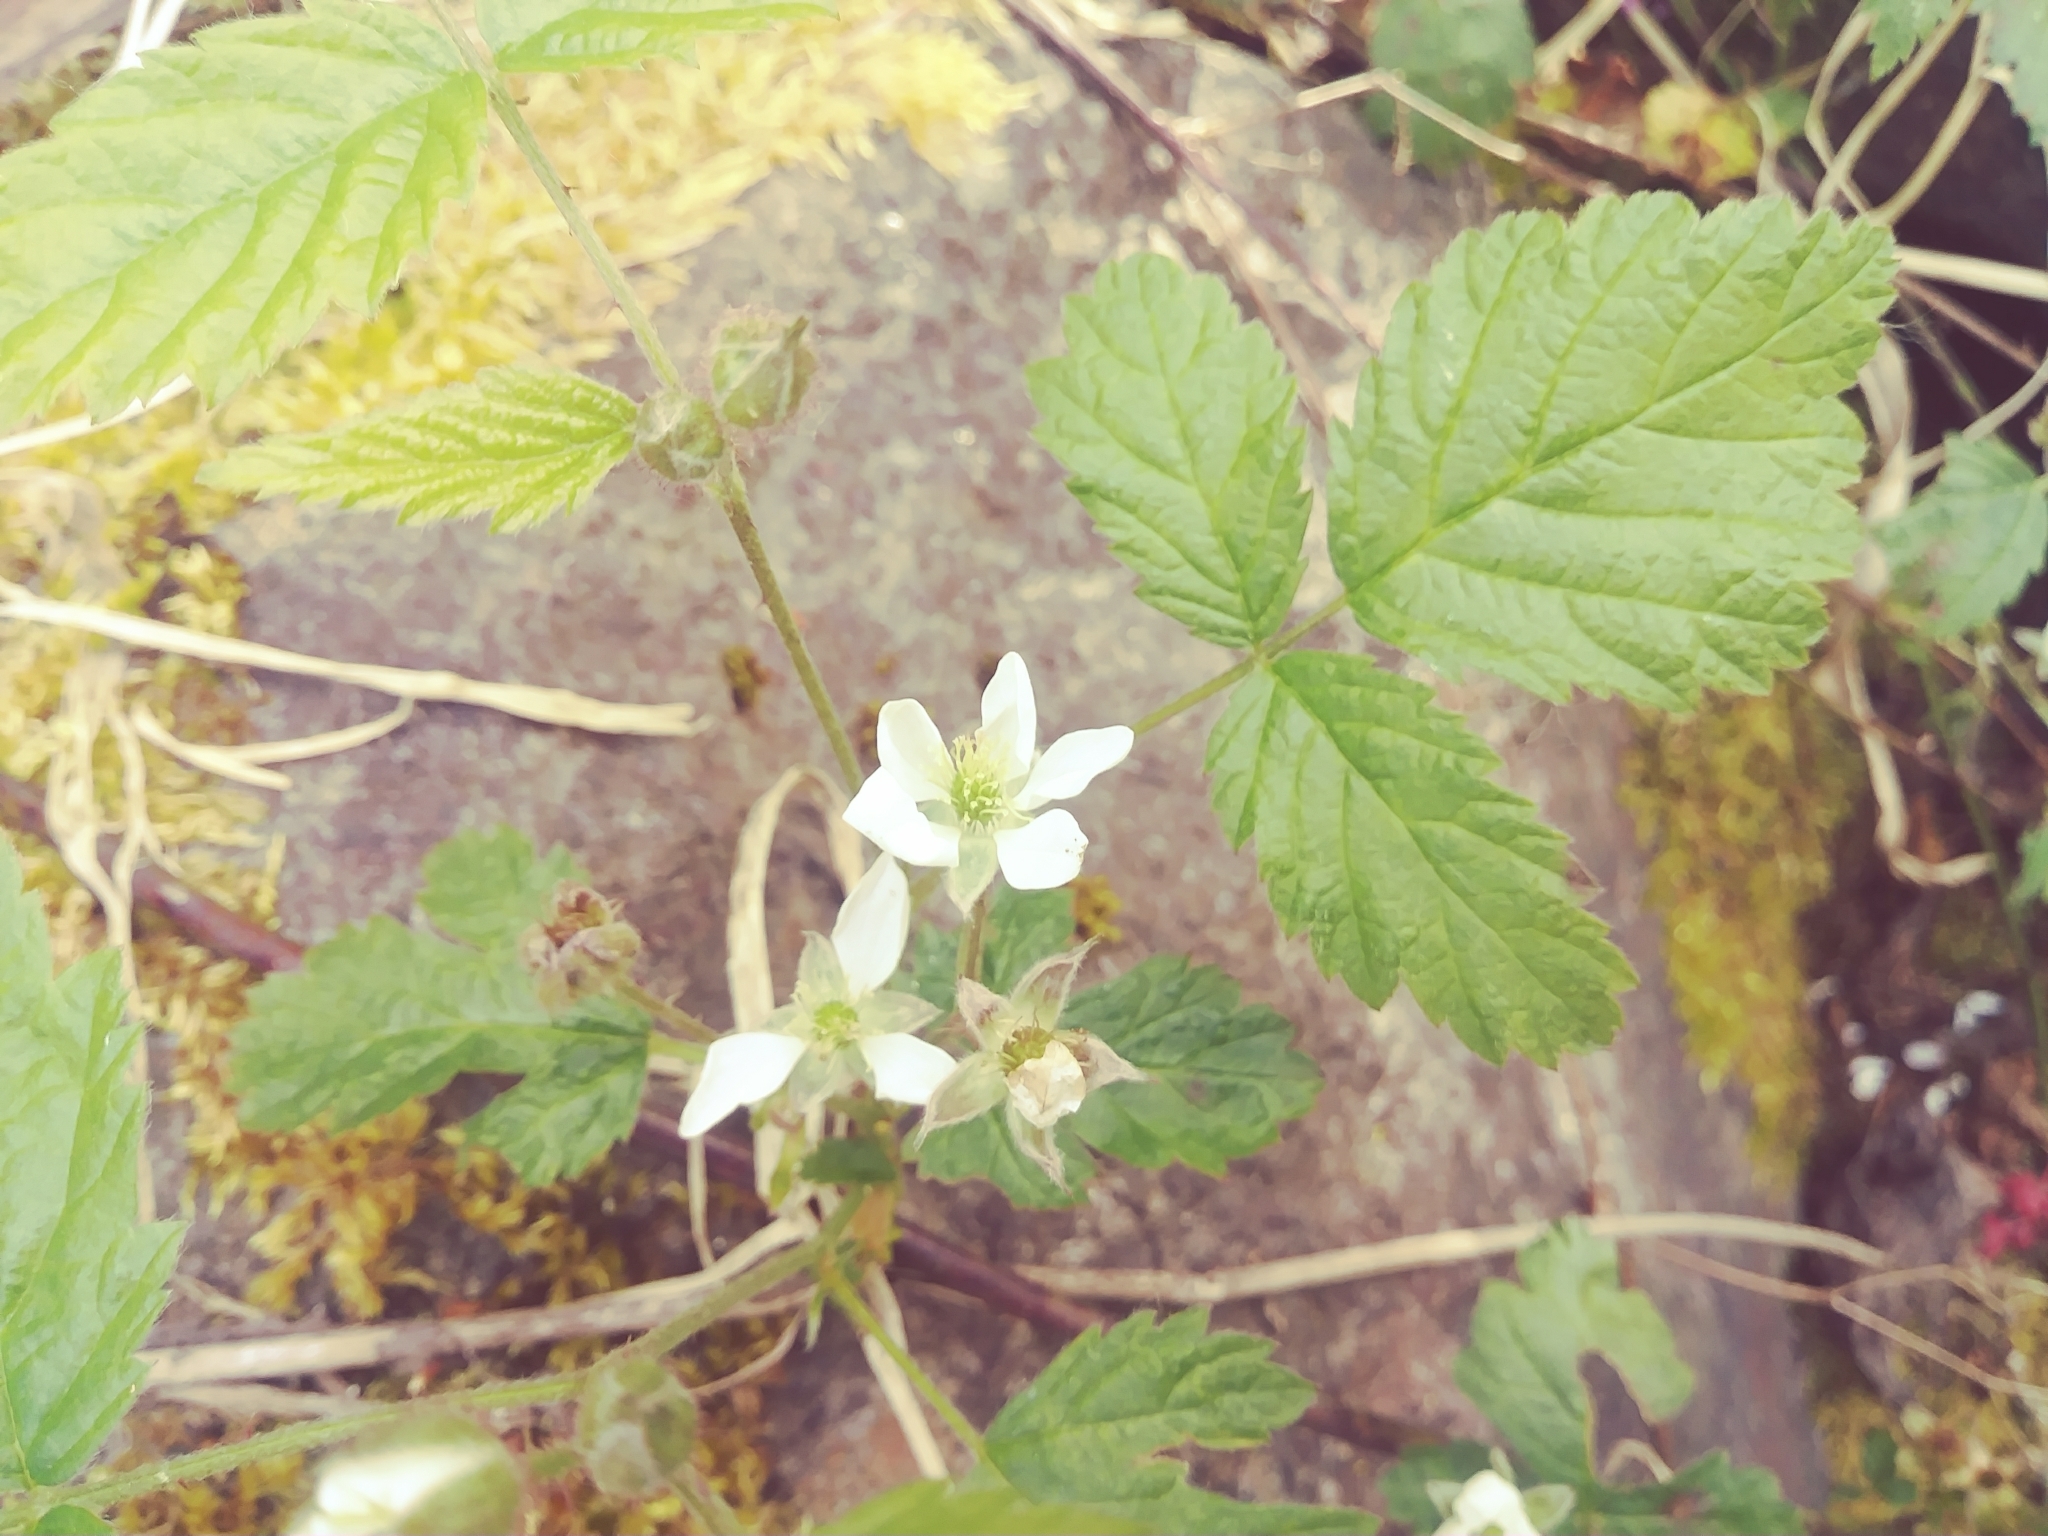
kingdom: Plantae
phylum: Tracheophyta
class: Magnoliopsida
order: Rosales
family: Rosaceae
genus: Rubus
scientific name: Rubus ursinus
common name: Pacific blackberry
